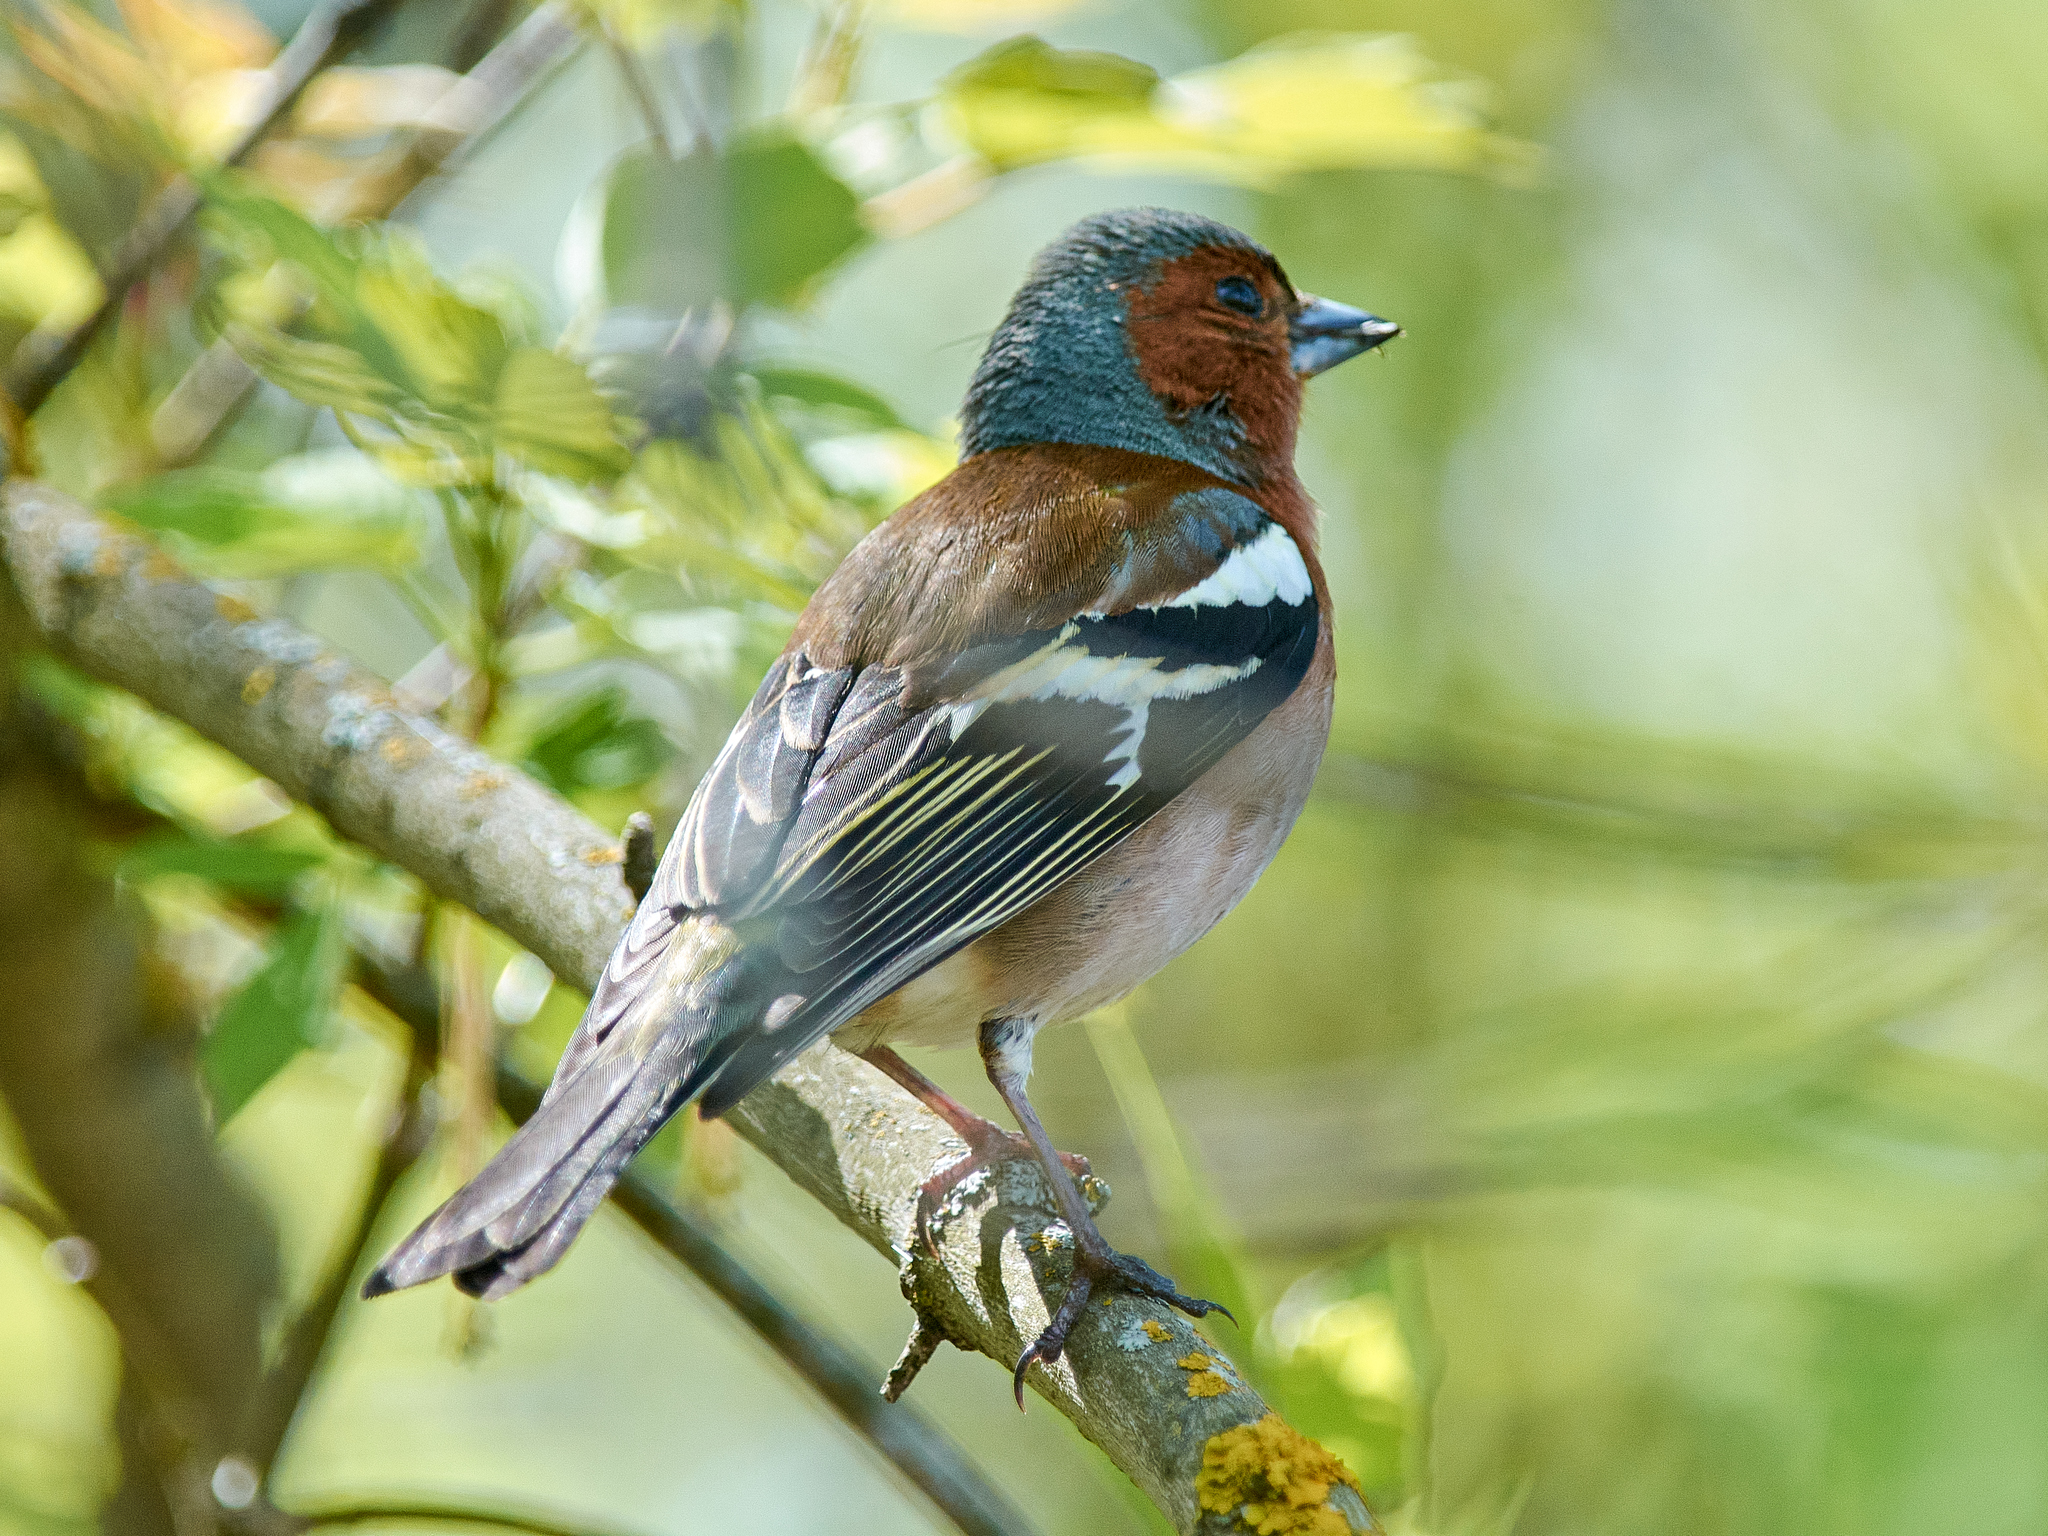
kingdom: Animalia
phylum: Chordata
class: Aves
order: Passeriformes
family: Fringillidae
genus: Fringilla
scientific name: Fringilla coelebs
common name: Common chaffinch
